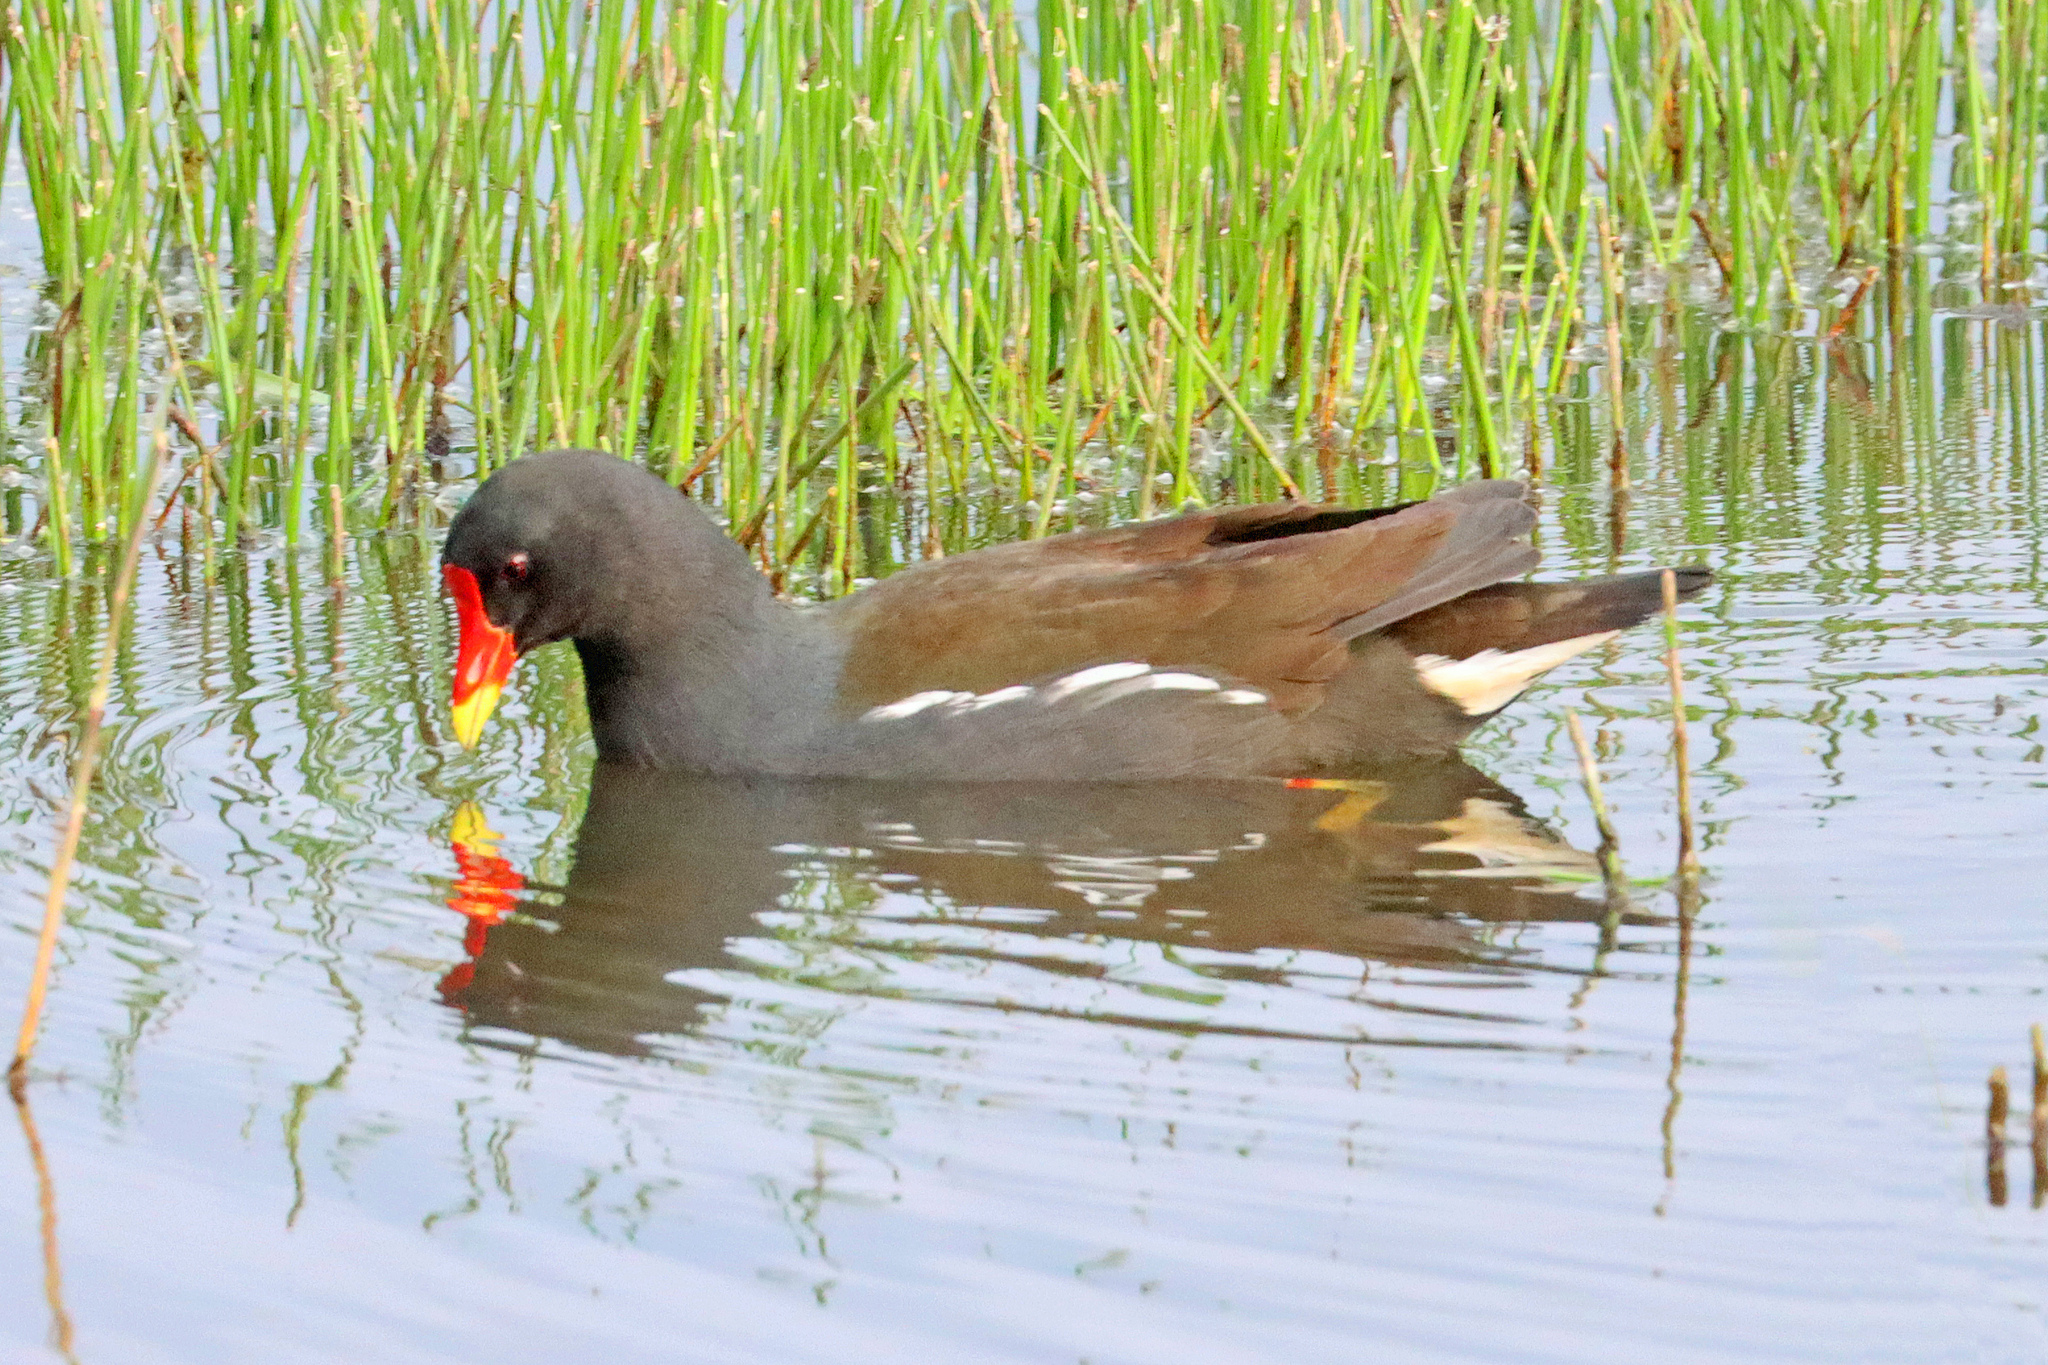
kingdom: Animalia
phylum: Chordata
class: Aves
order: Gruiformes
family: Rallidae
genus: Gallinula
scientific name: Gallinula chloropus
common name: Common moorhen
